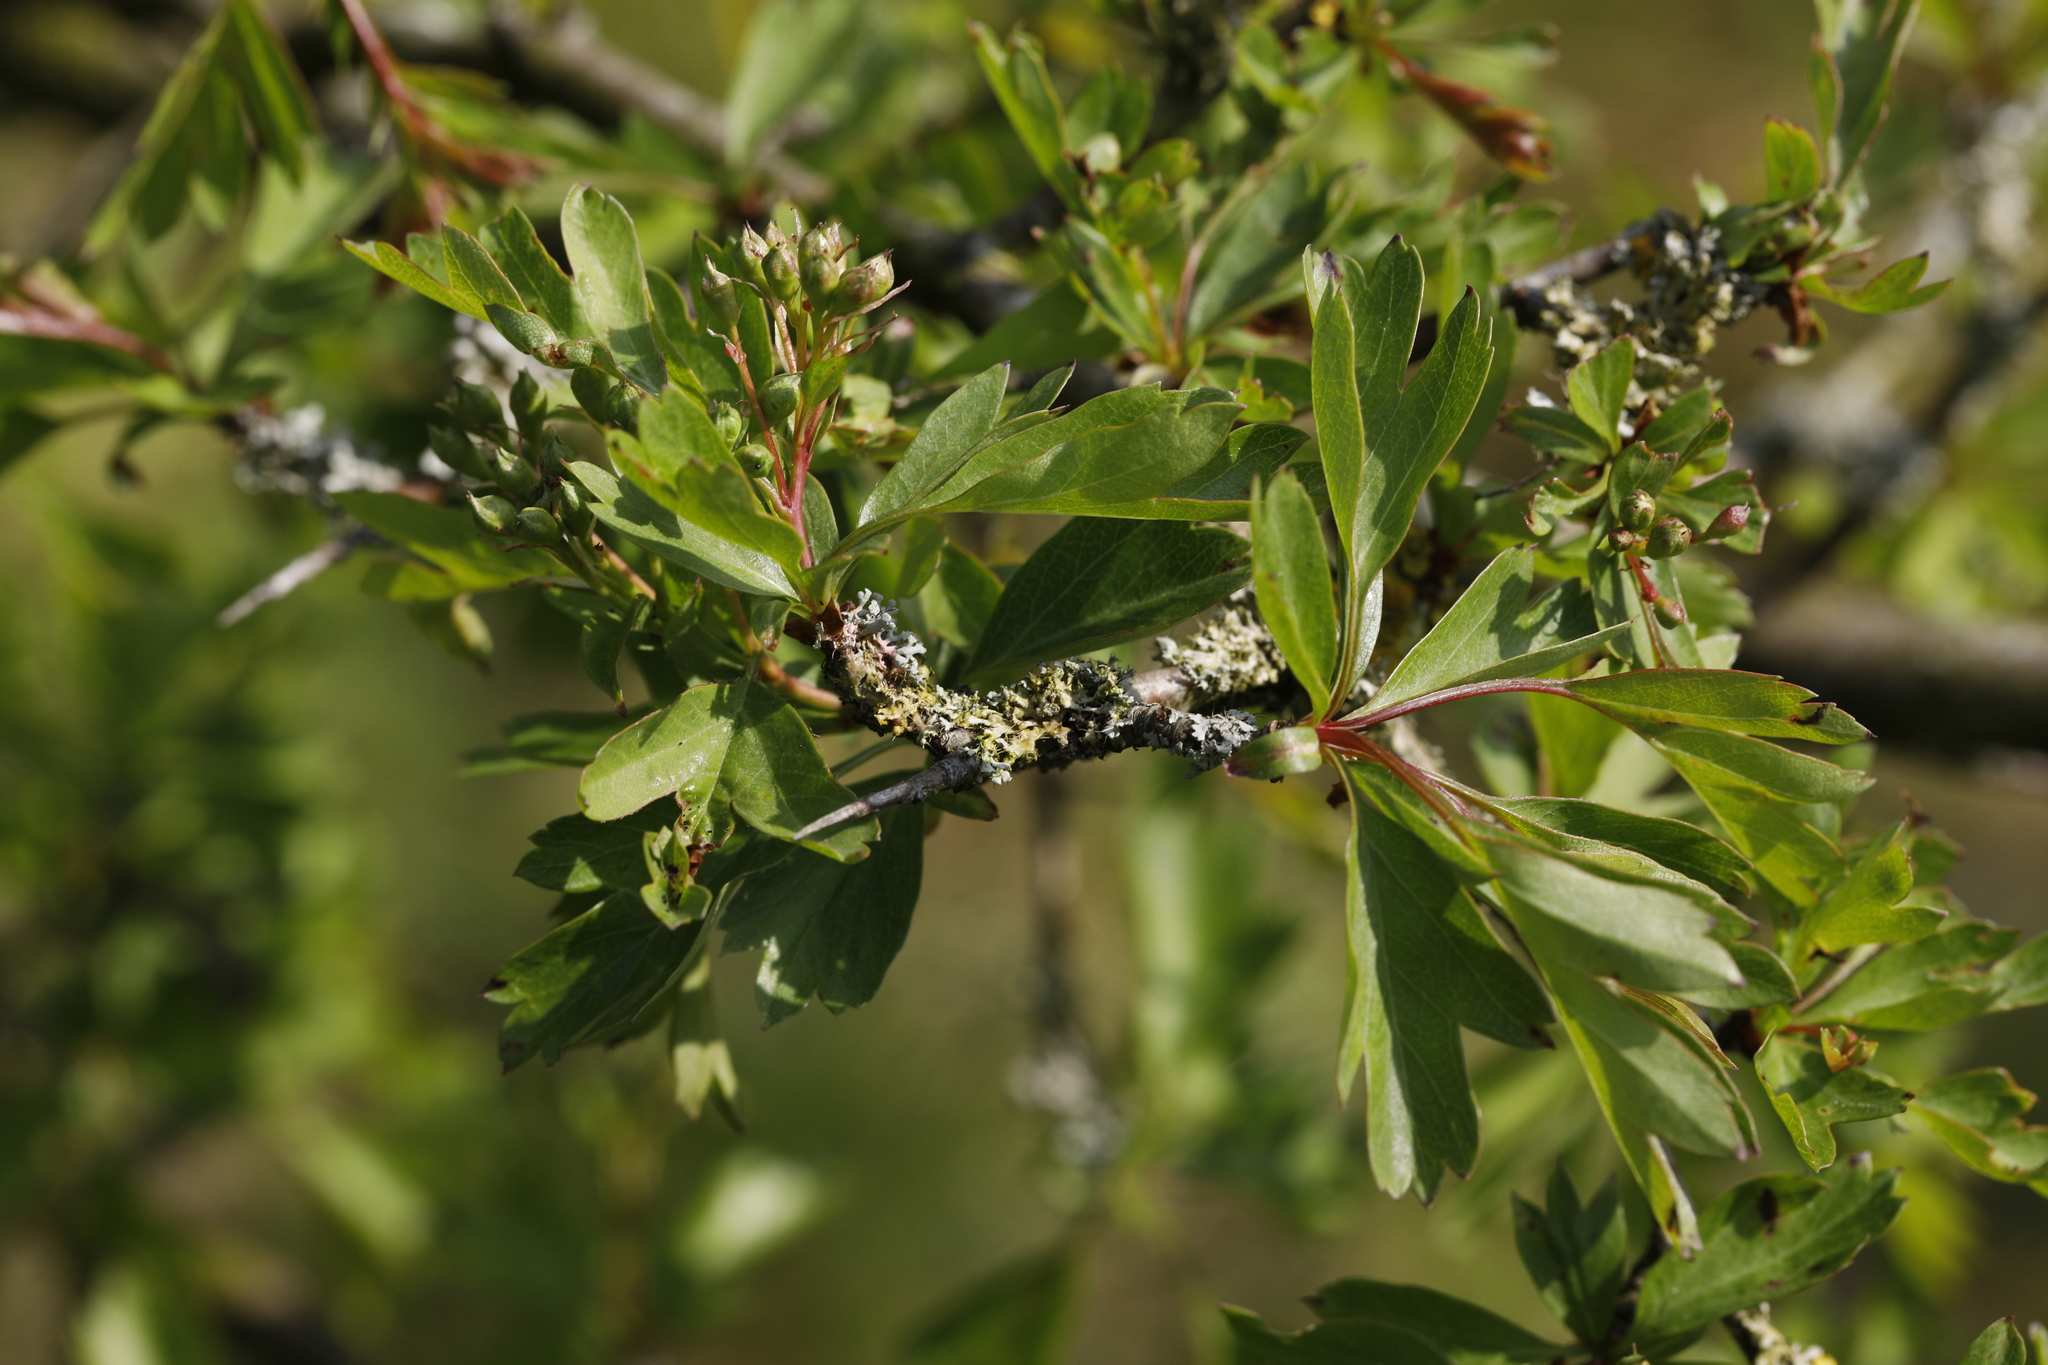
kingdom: Plantae
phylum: Tracheophyta
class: Magnoliopsida
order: Rosales
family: Rosaceae
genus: Crataegus
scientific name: Crataegus monogyna
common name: Hawthorn
